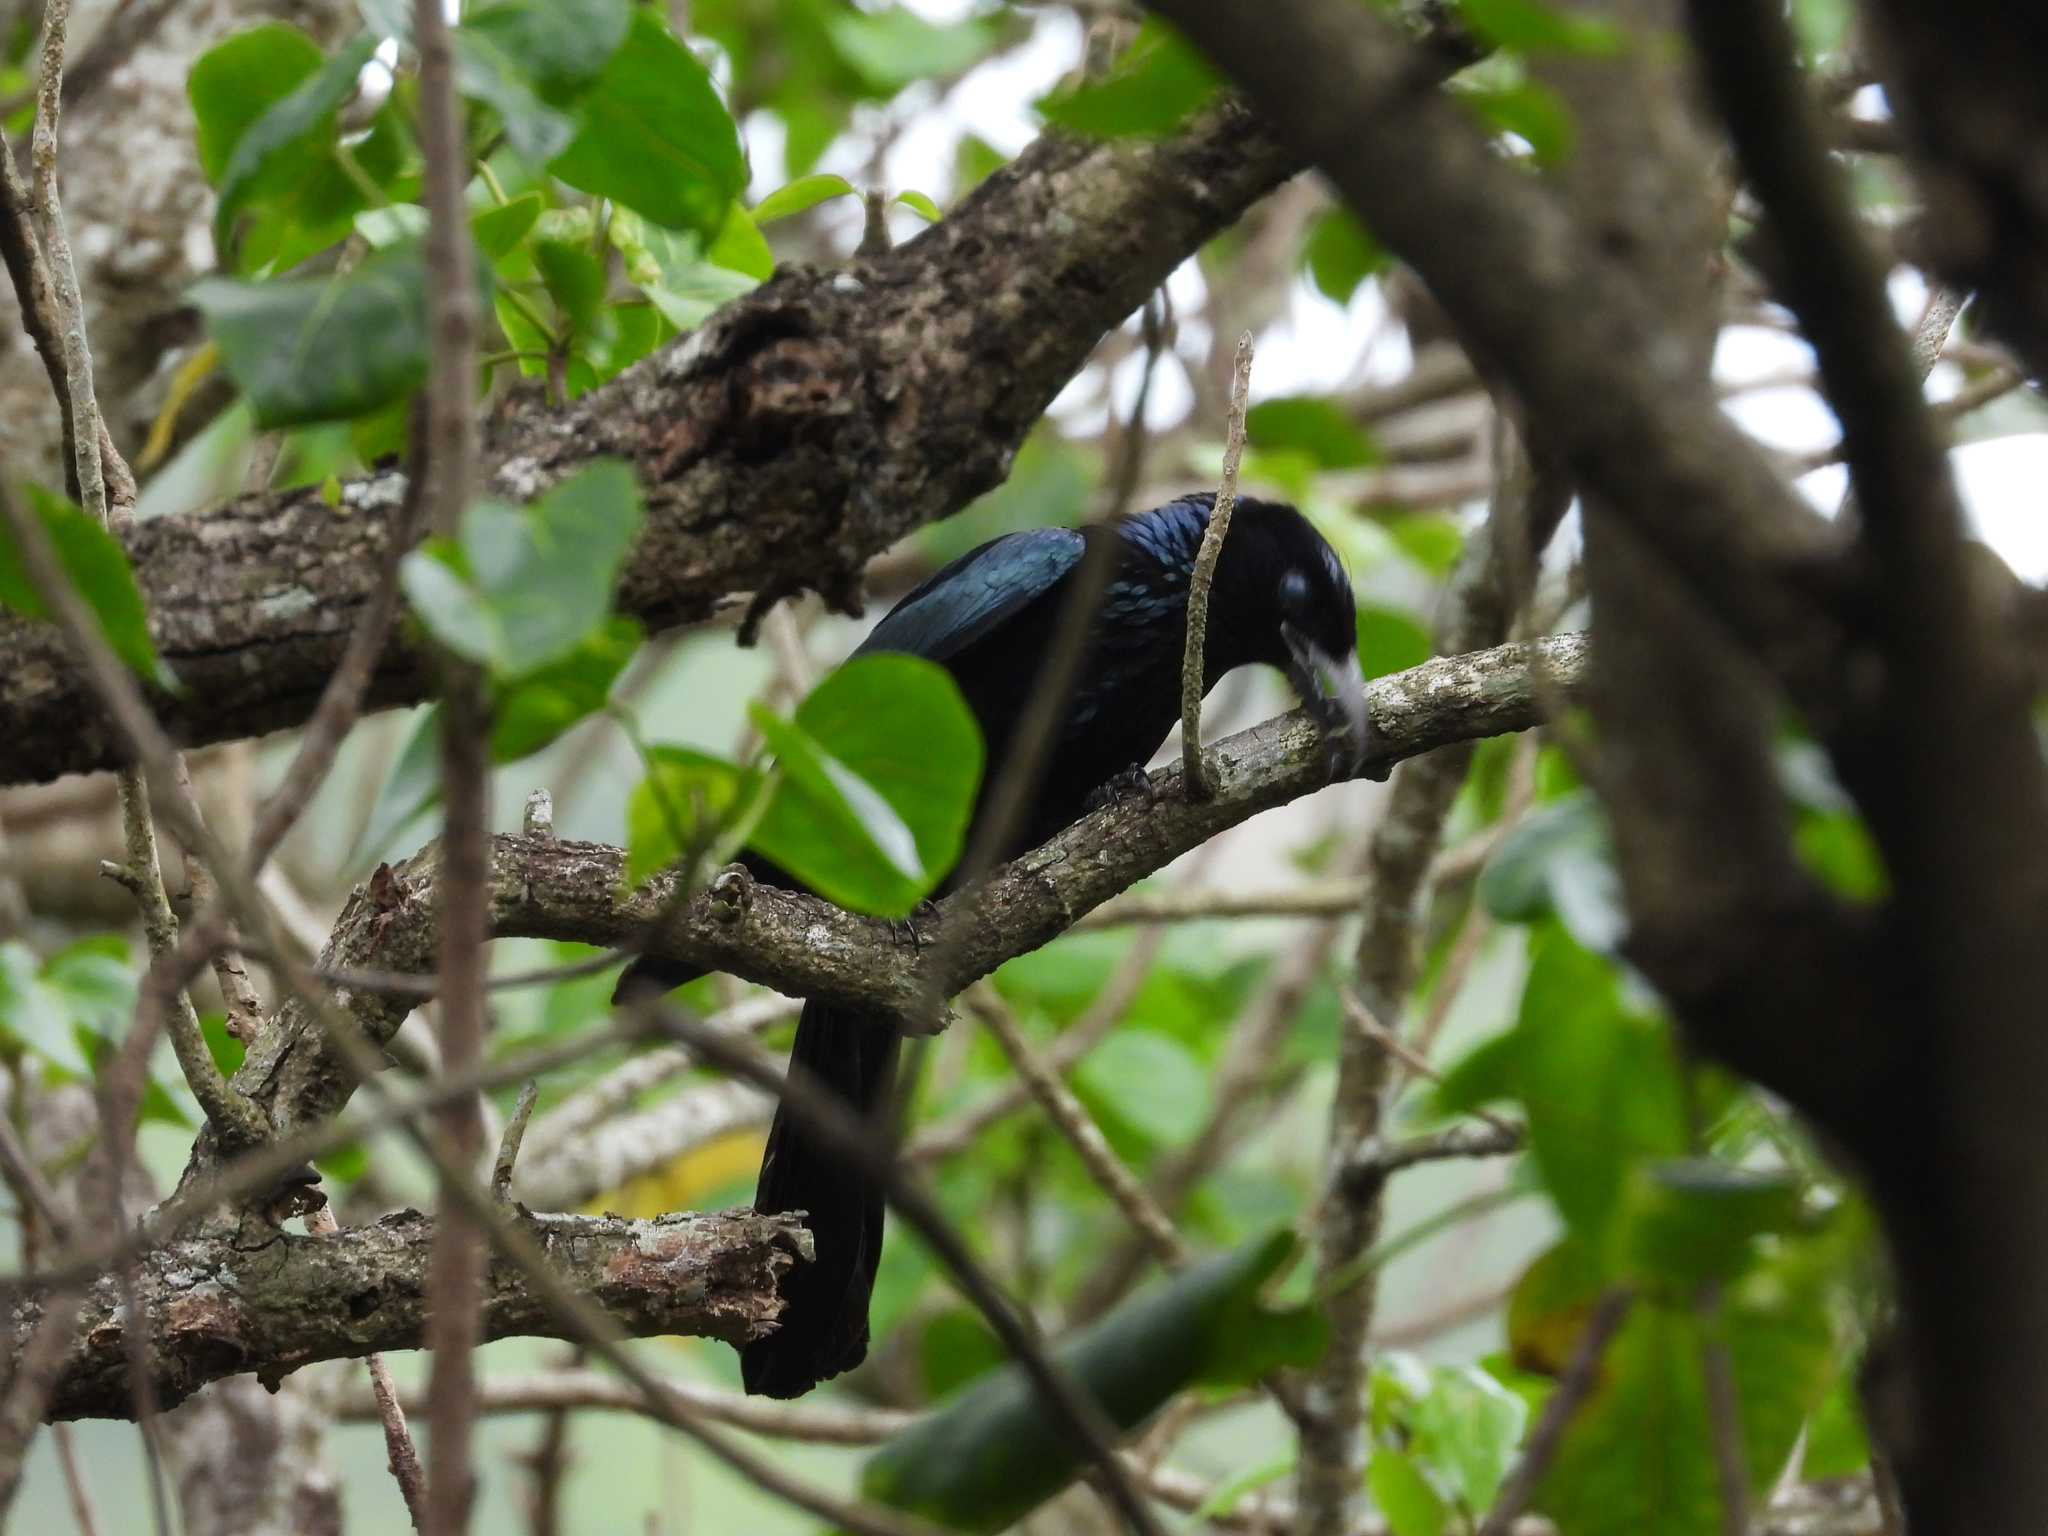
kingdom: Animalia
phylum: Chordata
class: Aves
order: Passeriformes
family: Dicruridae
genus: Dicrurus
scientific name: Dicrurus hottentottus
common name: Hair-crested drongo
